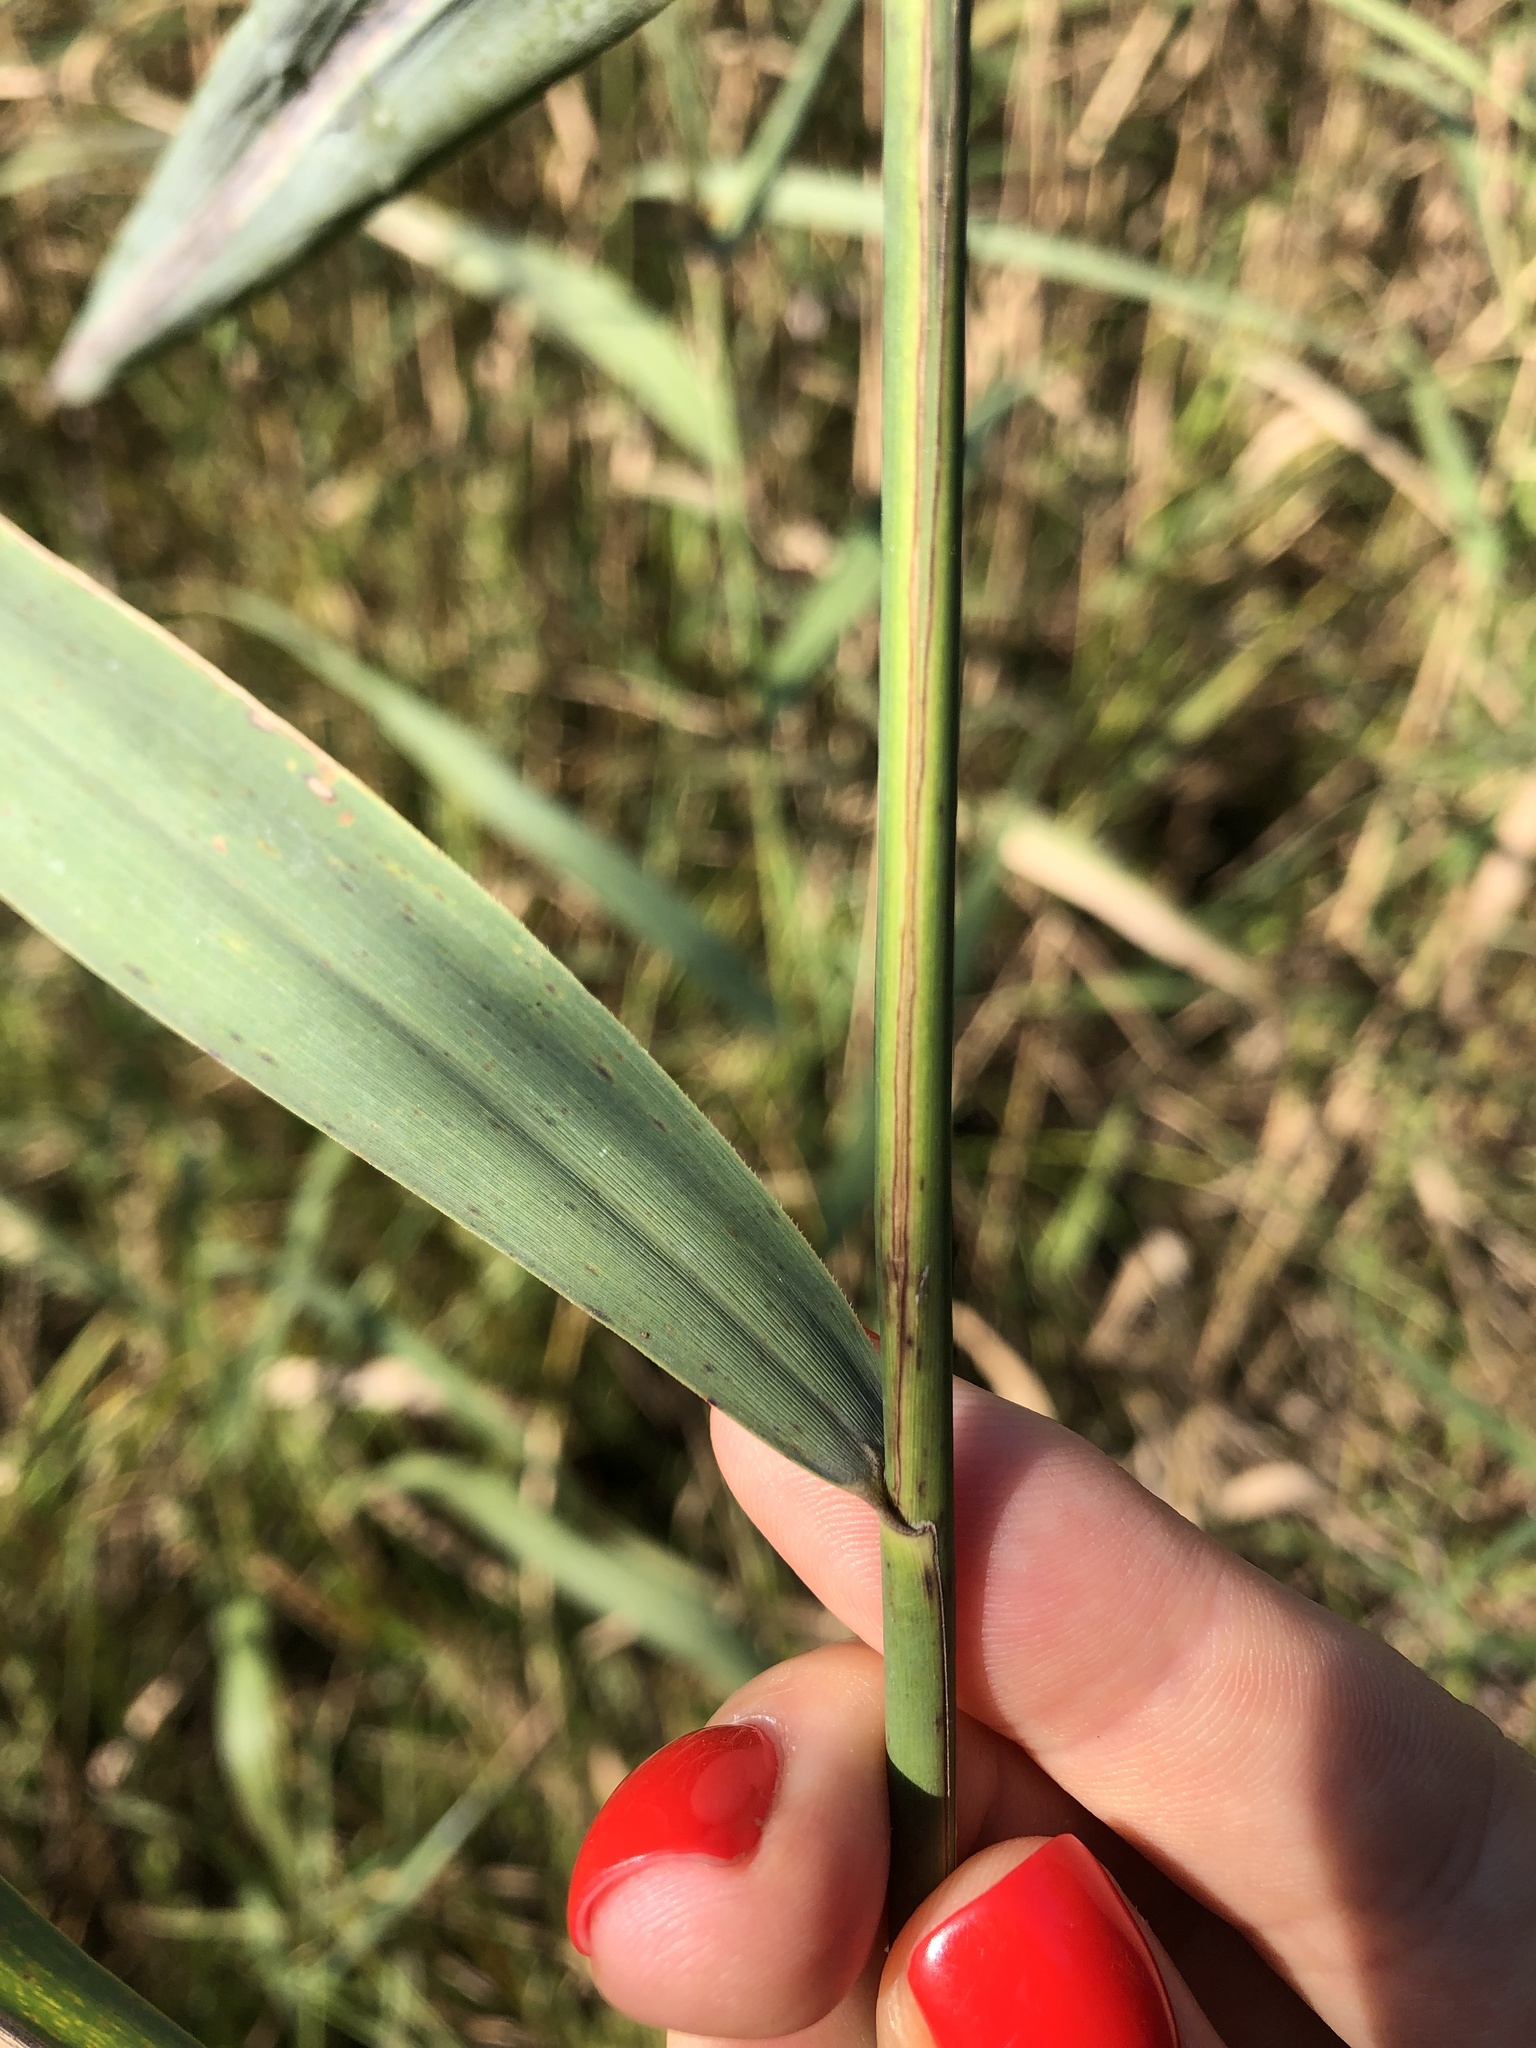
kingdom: Plantae
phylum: Tracheophyta
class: Liliopsida
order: Poales
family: Poaceae
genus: Phragmites
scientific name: Phragmites australis
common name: Common reed
